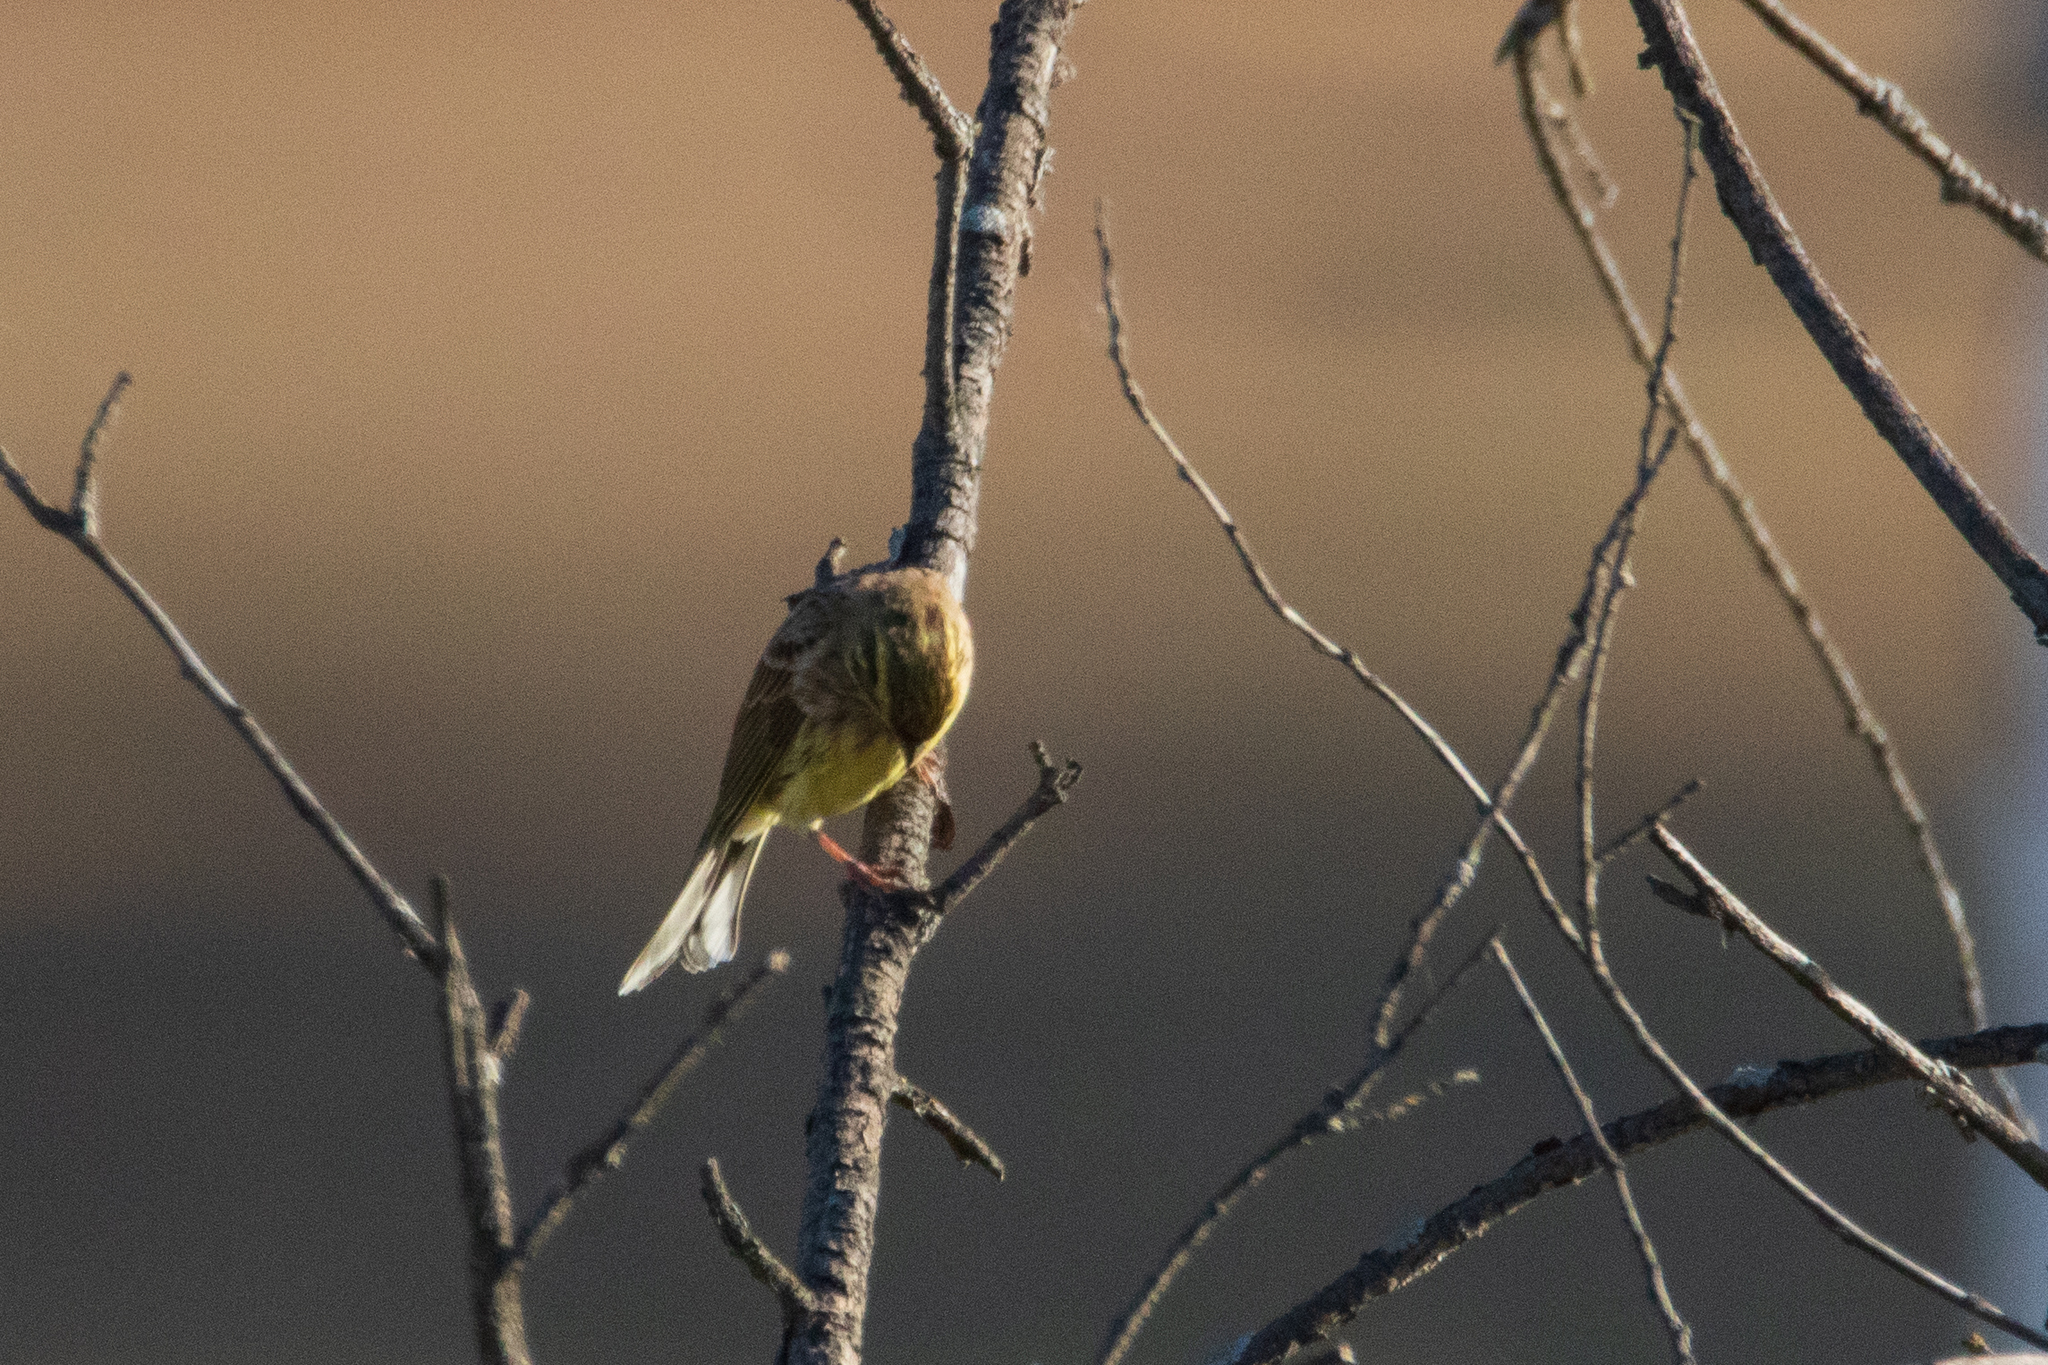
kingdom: Animalia
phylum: Chordata
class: Aves
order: Passeriformes
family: Emberizidae
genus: Emberiza
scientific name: Emberiza citrinella
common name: Yellowhammer
